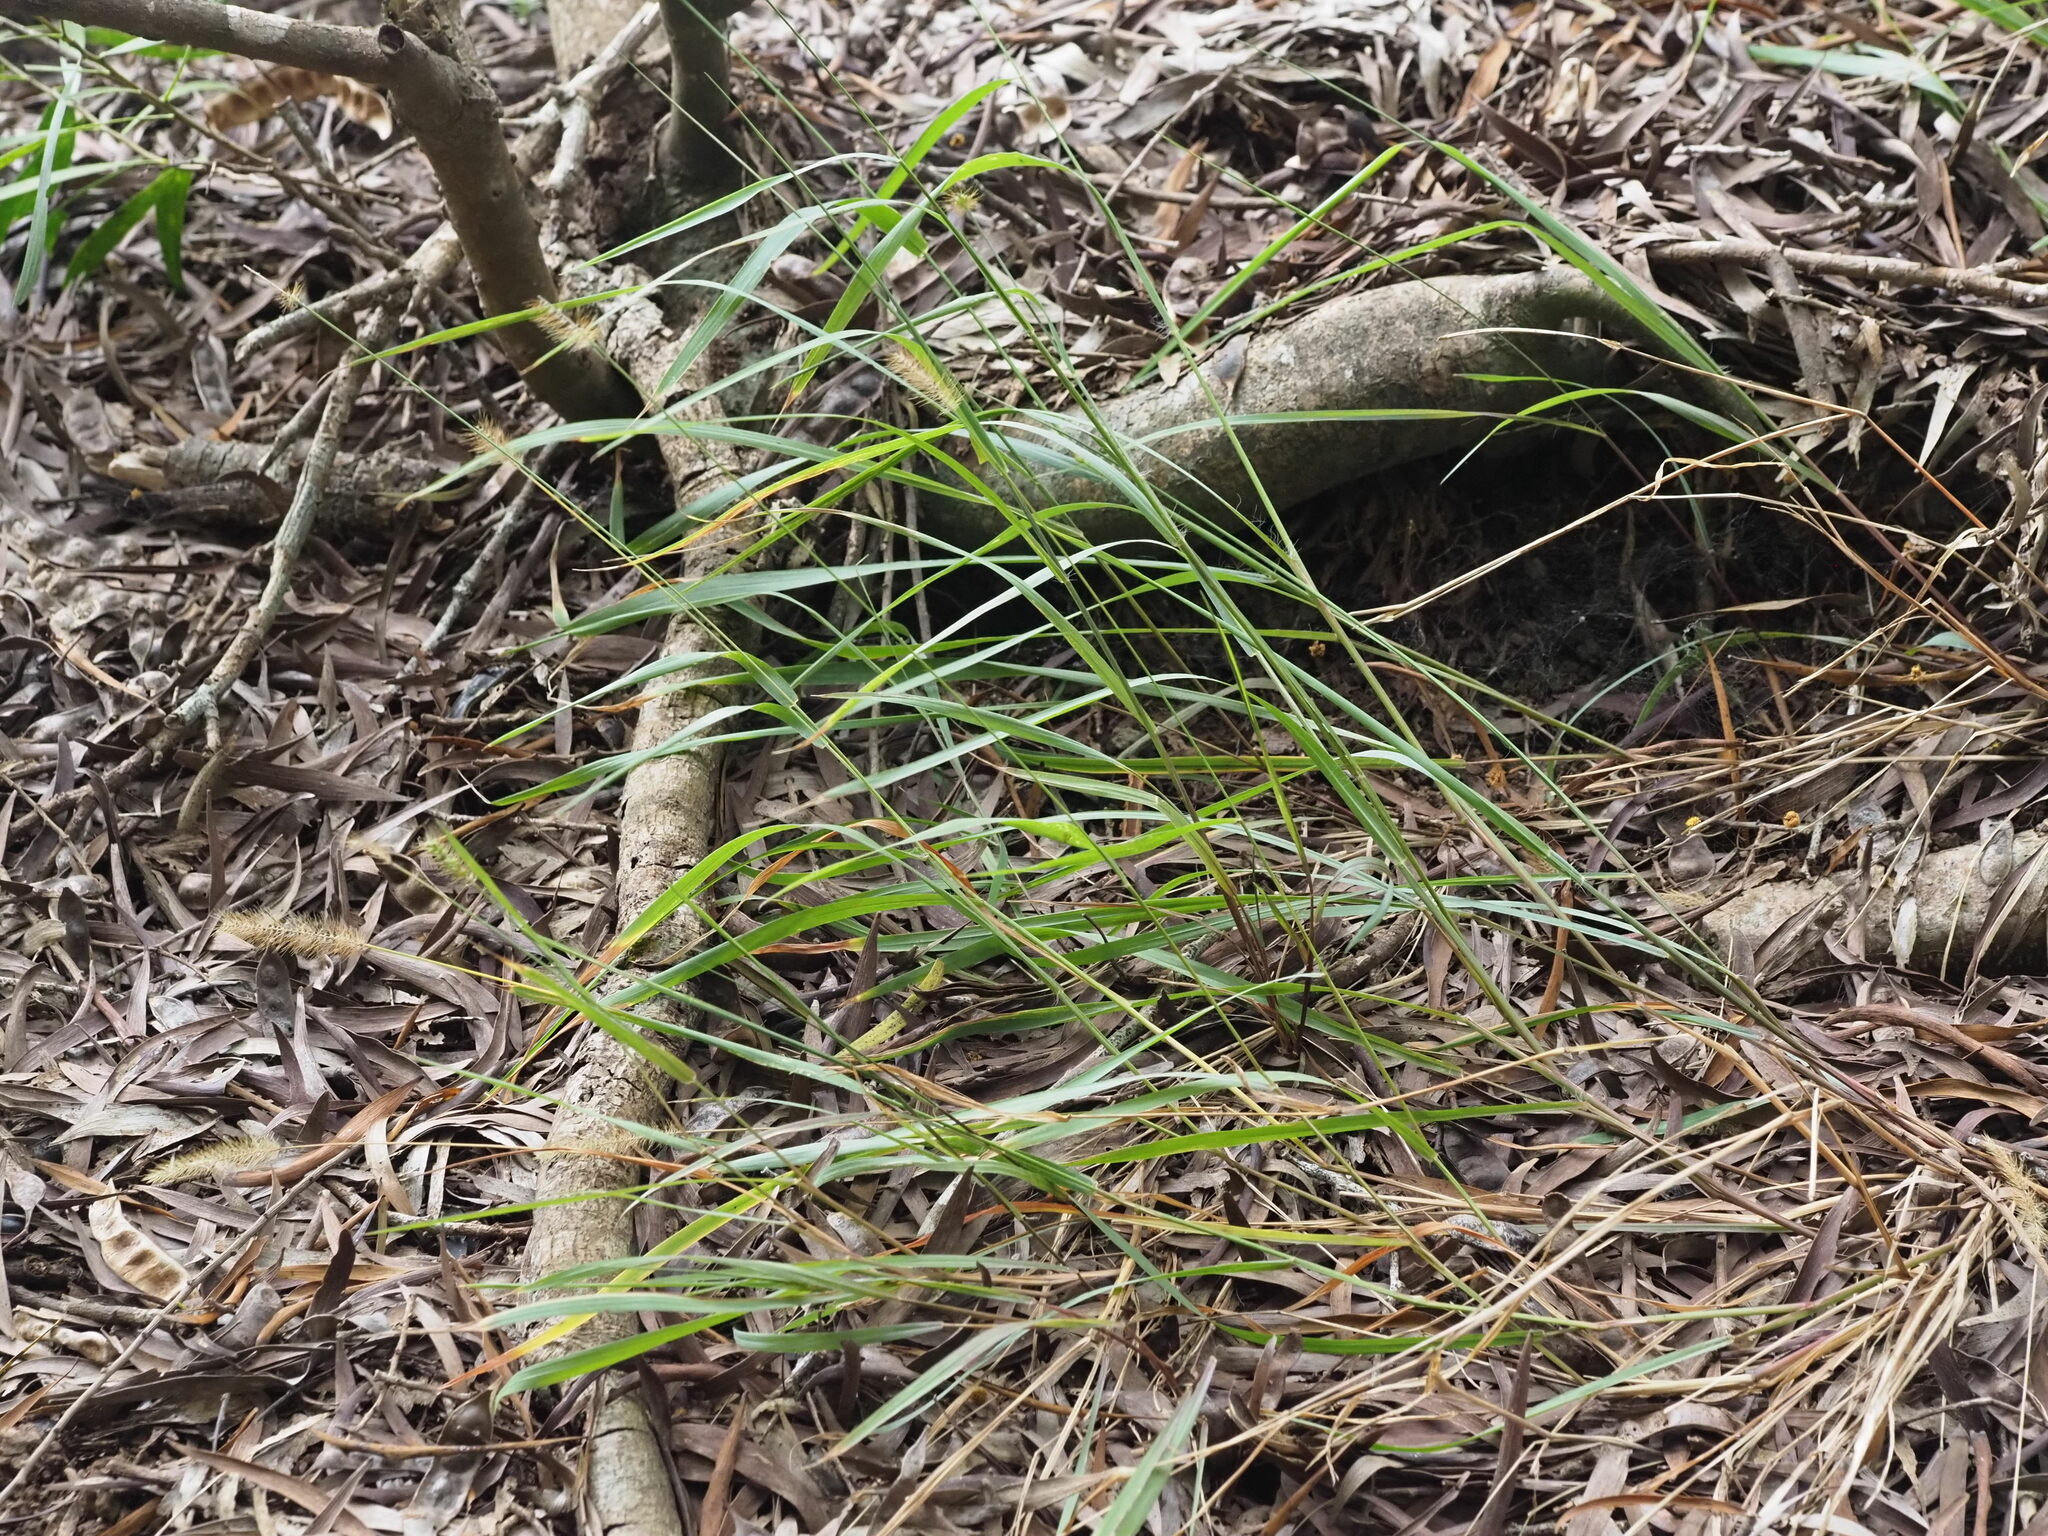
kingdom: Plantae
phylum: Tracheophyta
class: Liliopsida
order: Poales
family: Poaceae
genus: Setaria
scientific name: Setaria parviflora
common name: Knotroot bristle-grass
